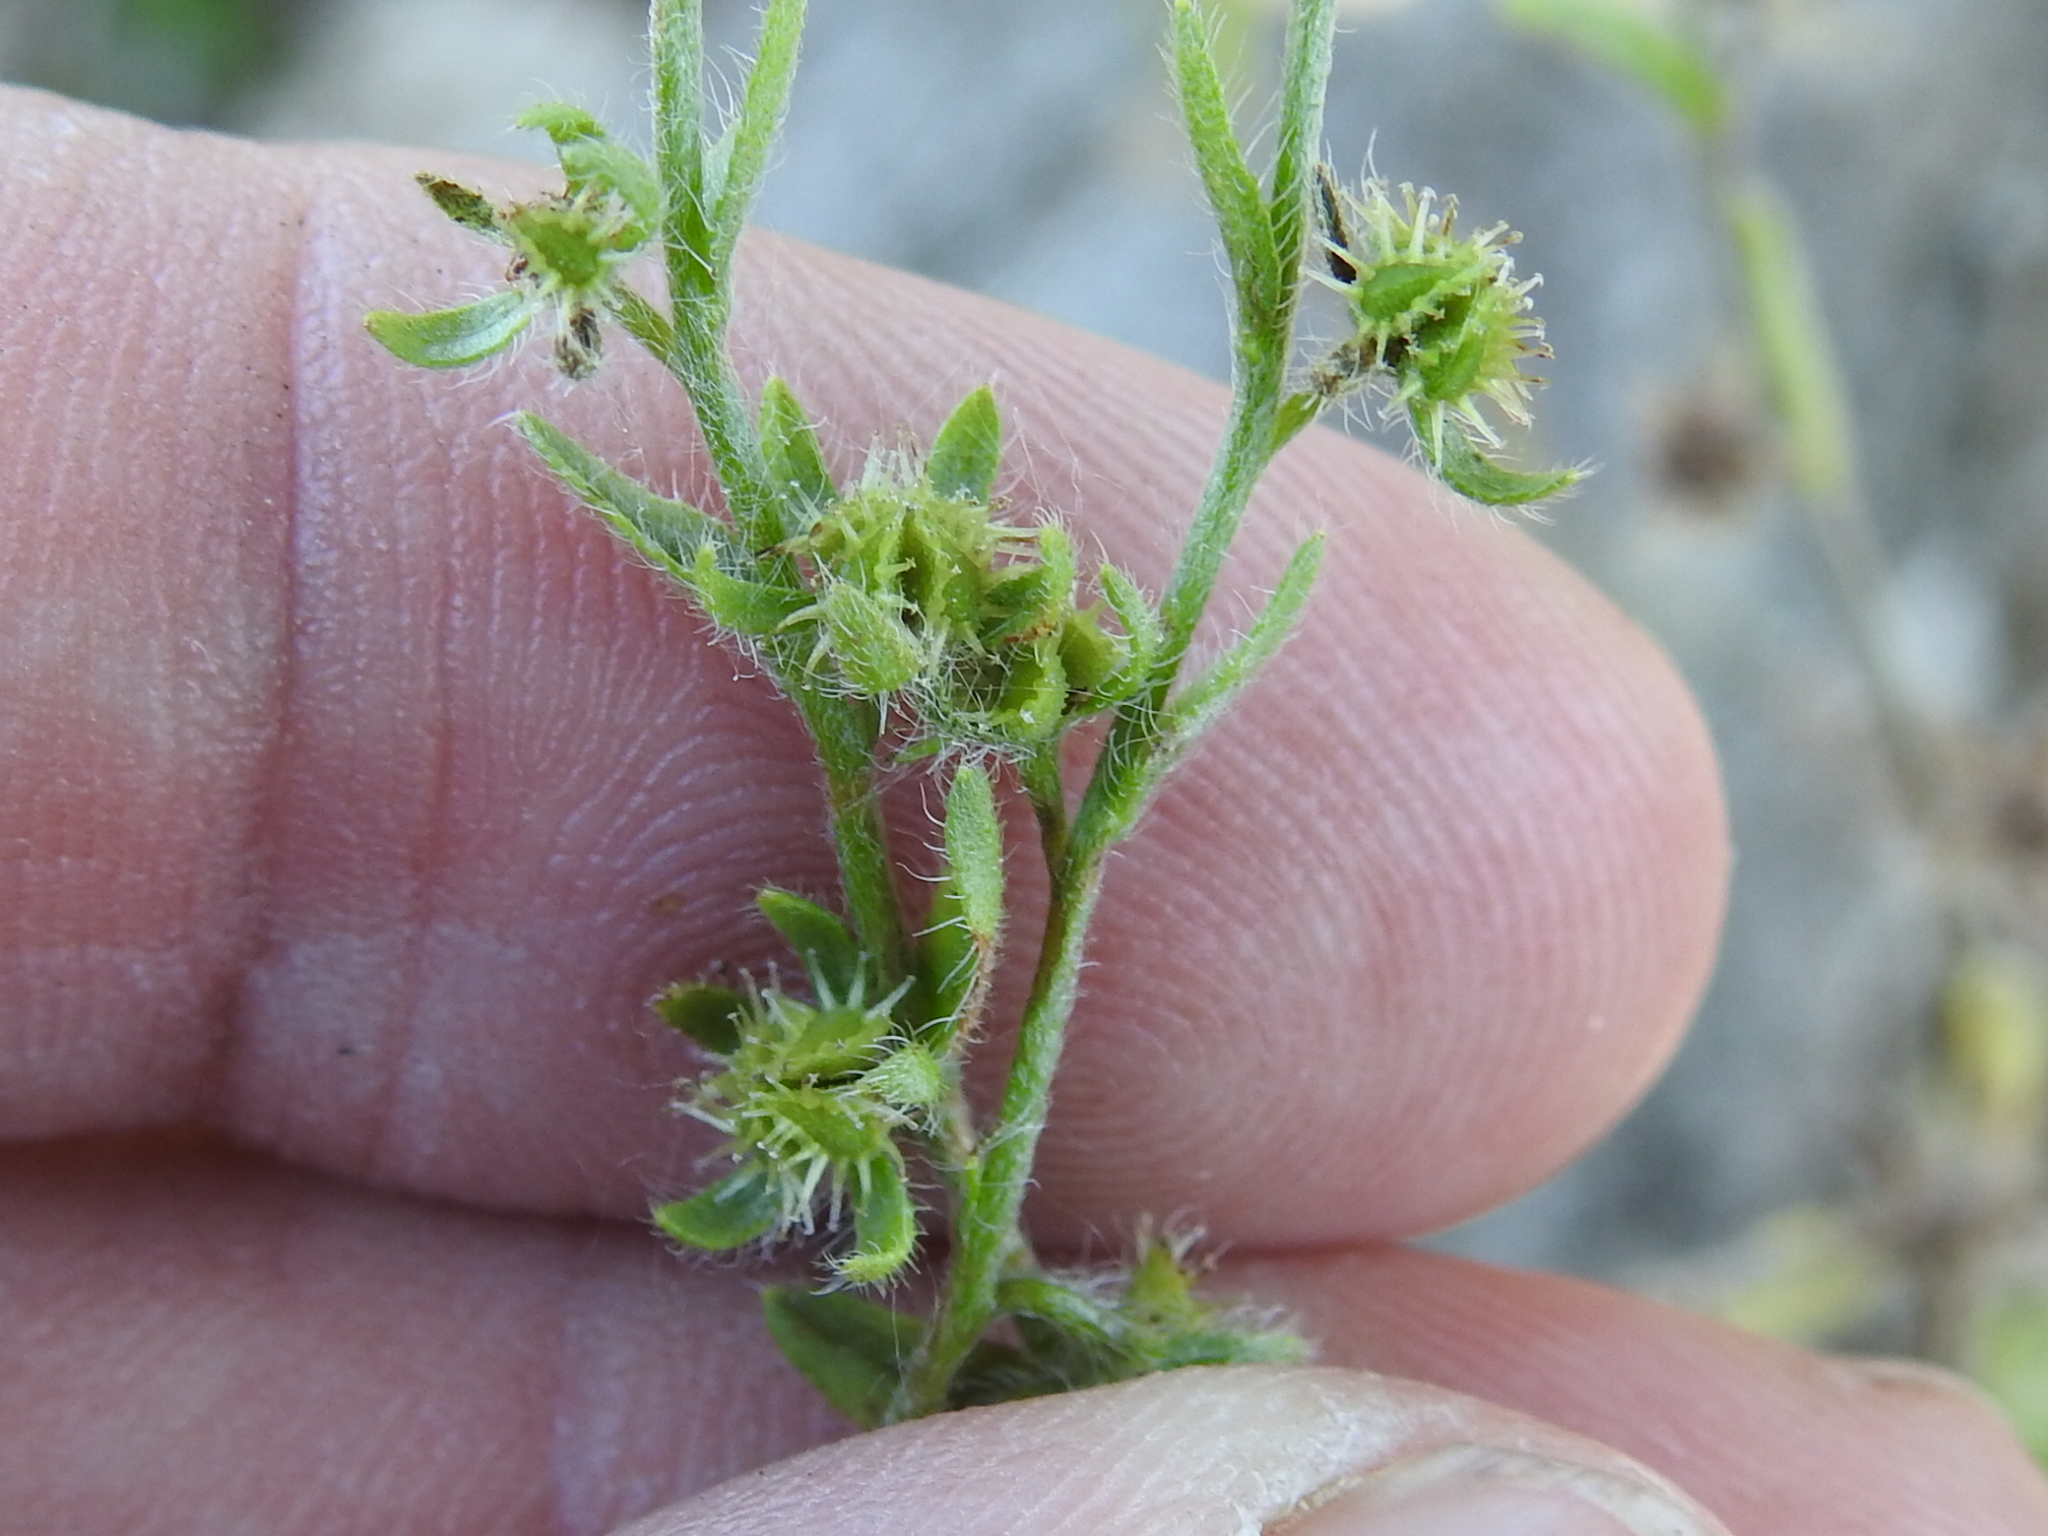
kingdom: Plantae
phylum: Tracheophyta
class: Magnoliopsida
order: Boraginales
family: Boraginaceae
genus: Lappula
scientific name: Lappula occidentalis
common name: Western stickseed
